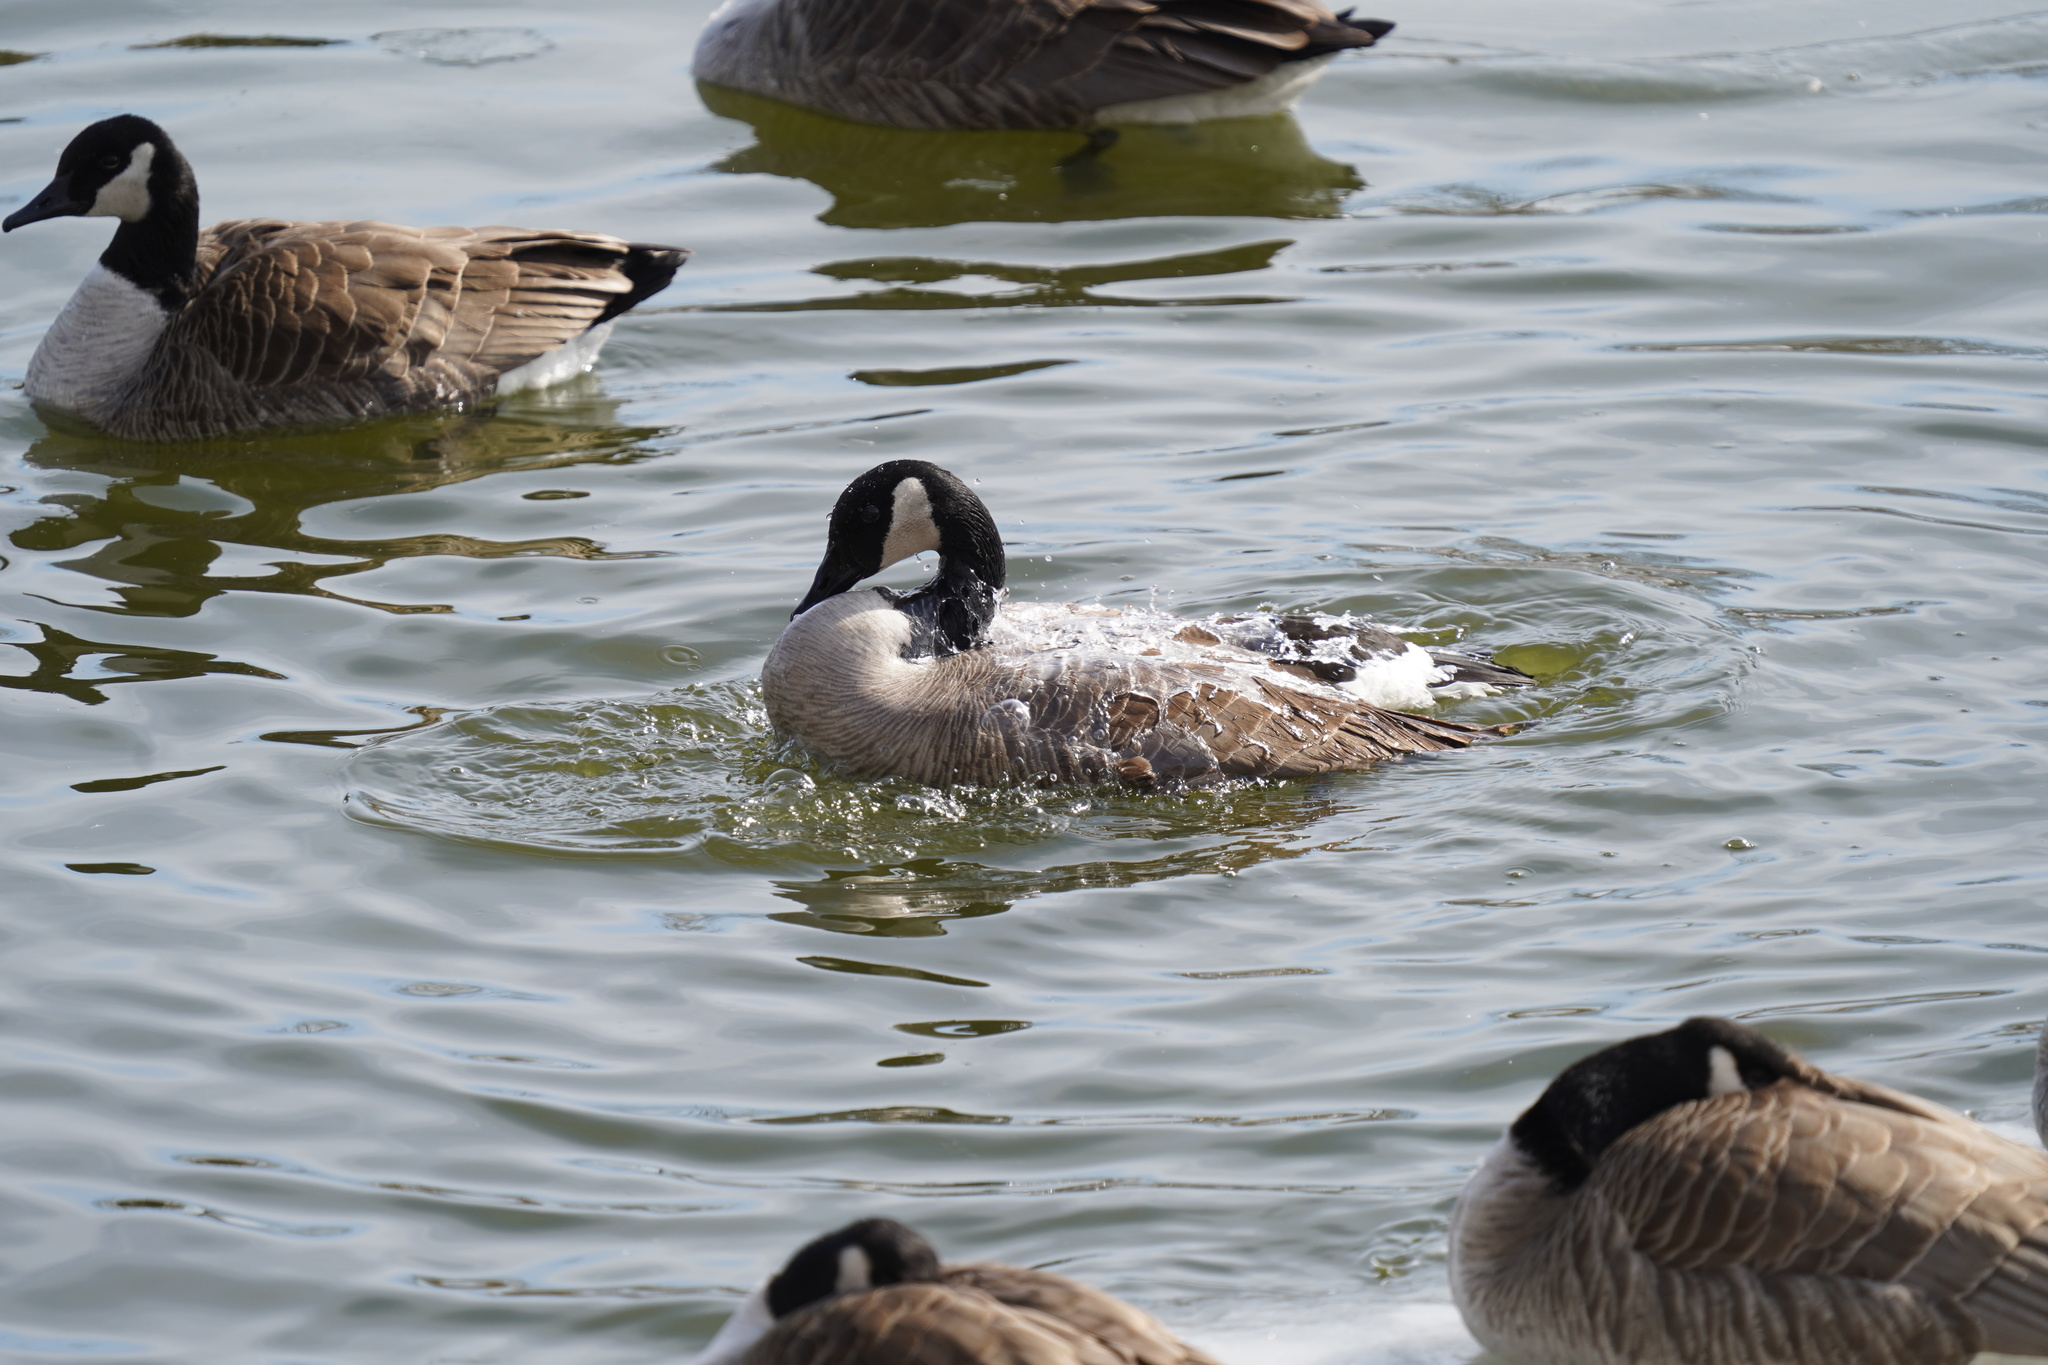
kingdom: Animalia
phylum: Chordata
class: Aves
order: Anseriformes
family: Anatidae
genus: Branta
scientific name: Branta canadensis
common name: Canada goose
